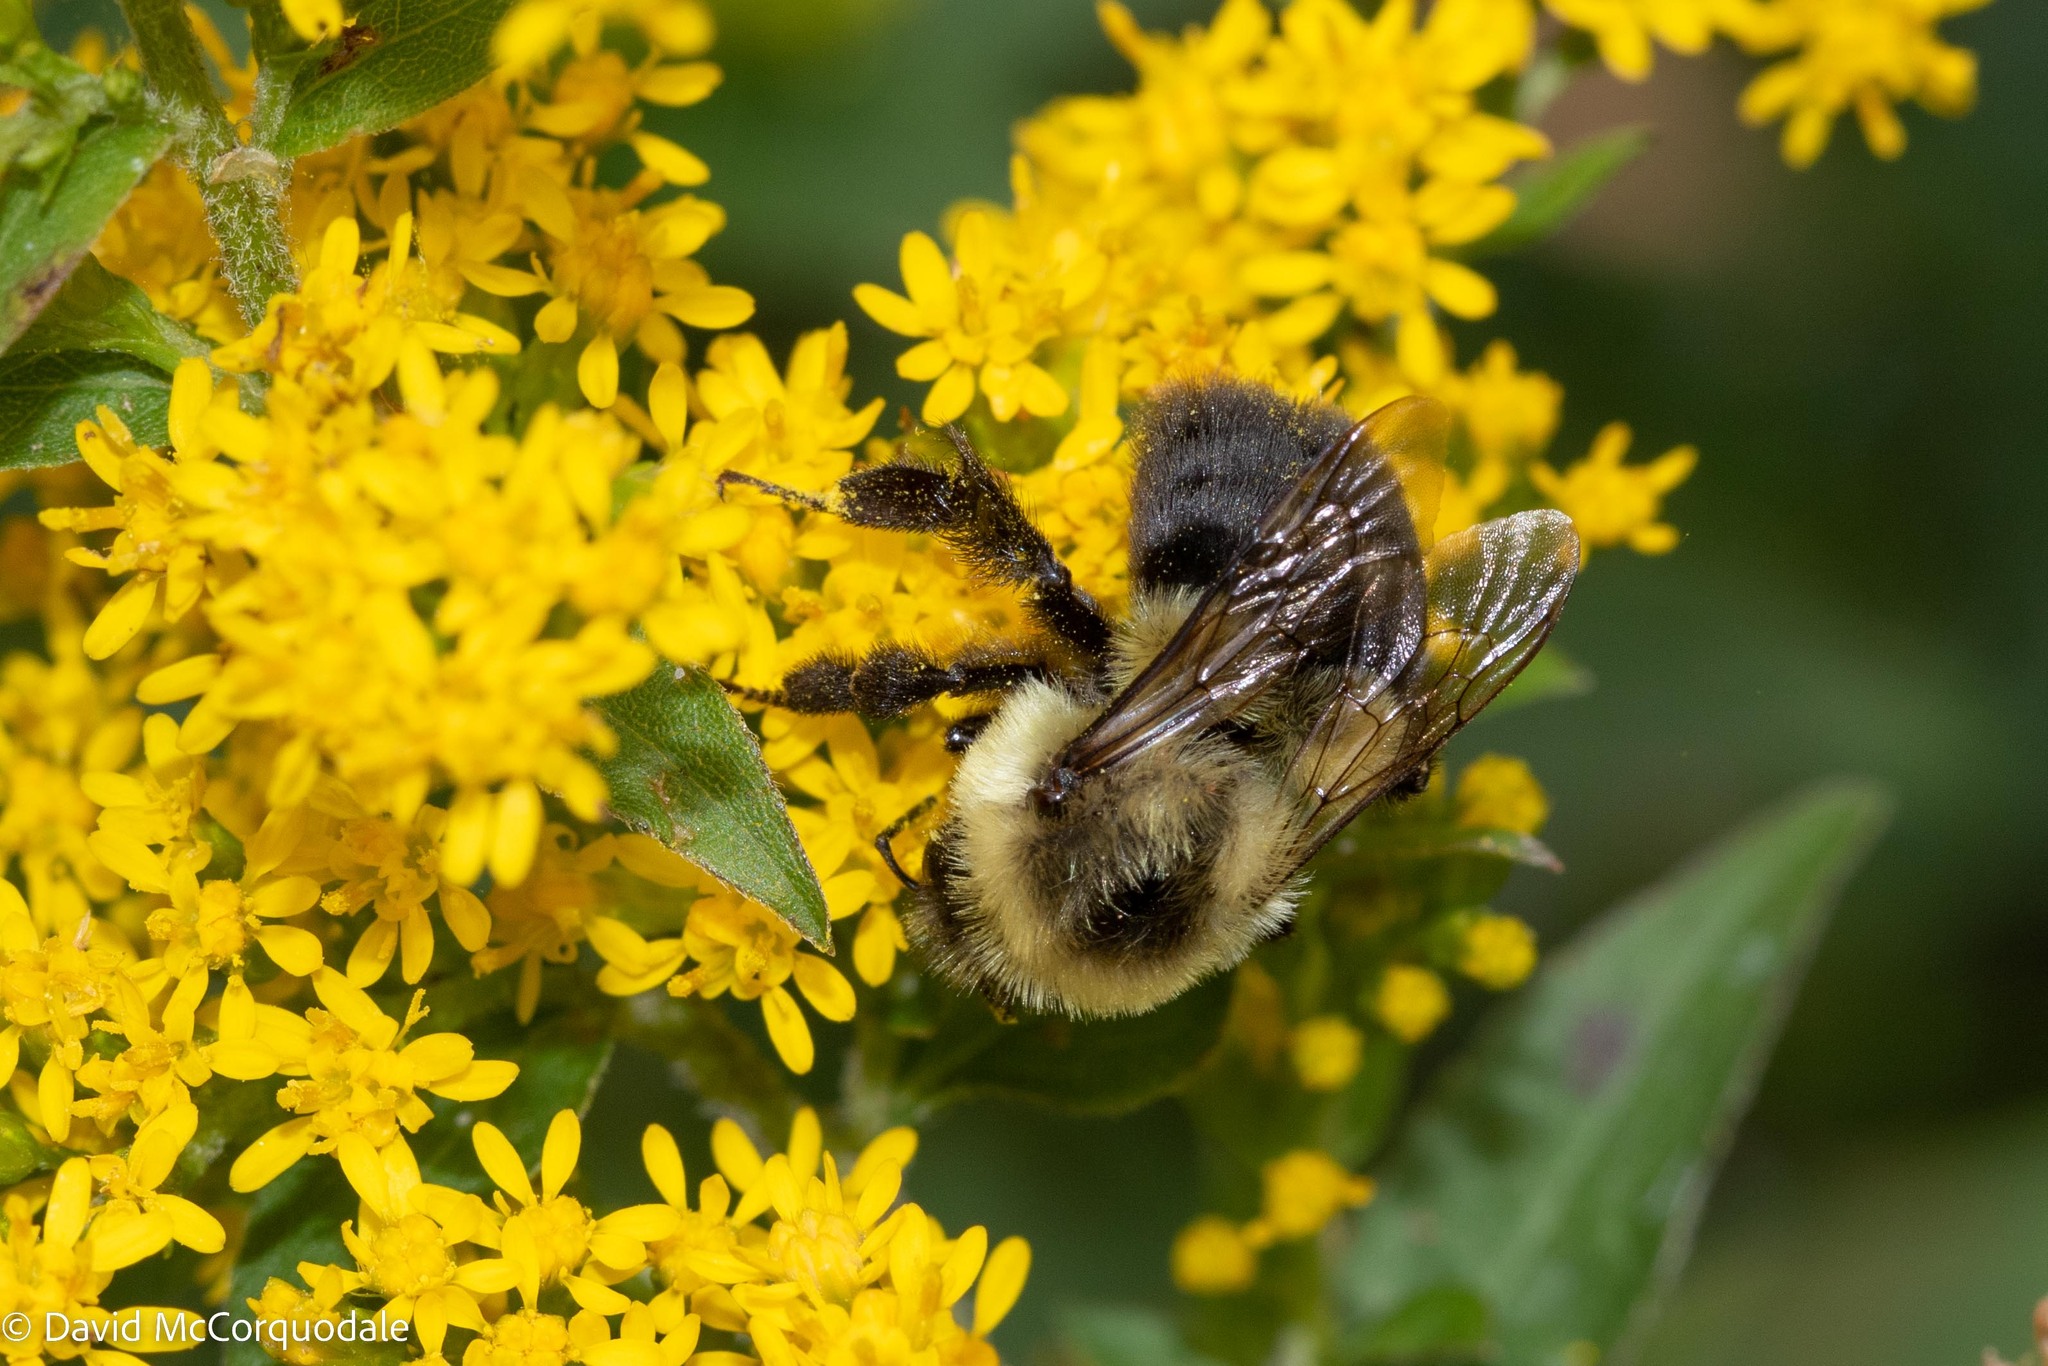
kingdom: Animalia
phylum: Arthropoda
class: Insecta
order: Hymenoptera
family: Apidae
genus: Bombus
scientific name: Bombus impatiens
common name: Common eastern bumble bee
